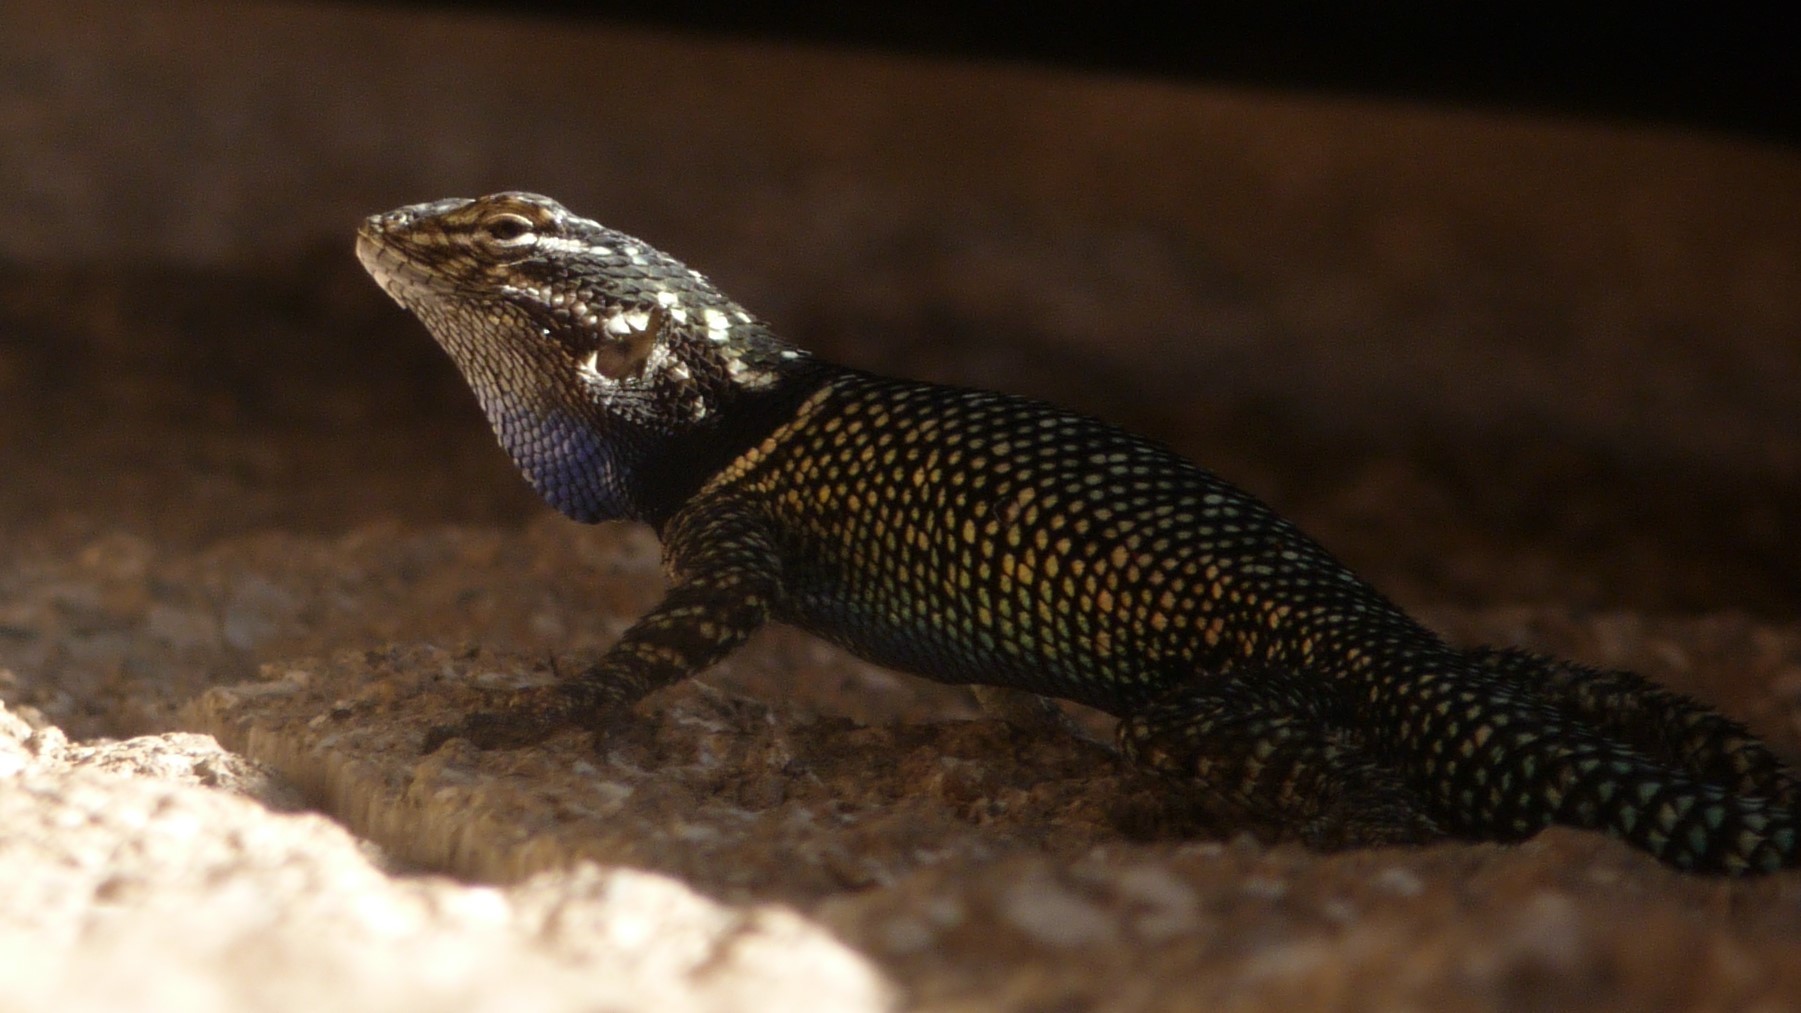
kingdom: Animalia
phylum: Chordata
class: Squamata
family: Phrynosomatidae
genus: Sceloporus
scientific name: Sceloporus jarrovii
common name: Yarrow's spiny lizard
